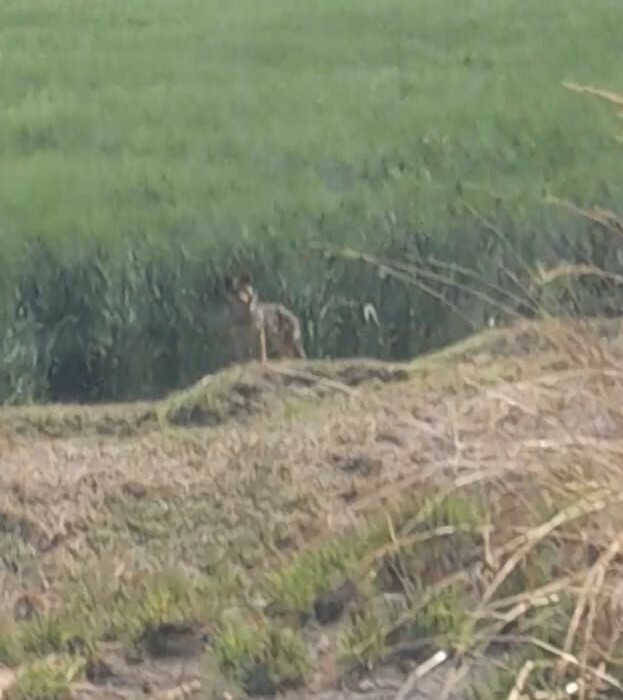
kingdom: Animalia
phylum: Chordata
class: Mammalia
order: Carnivora
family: Canidae
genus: Canis
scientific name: Canis latrans
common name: Coyote
